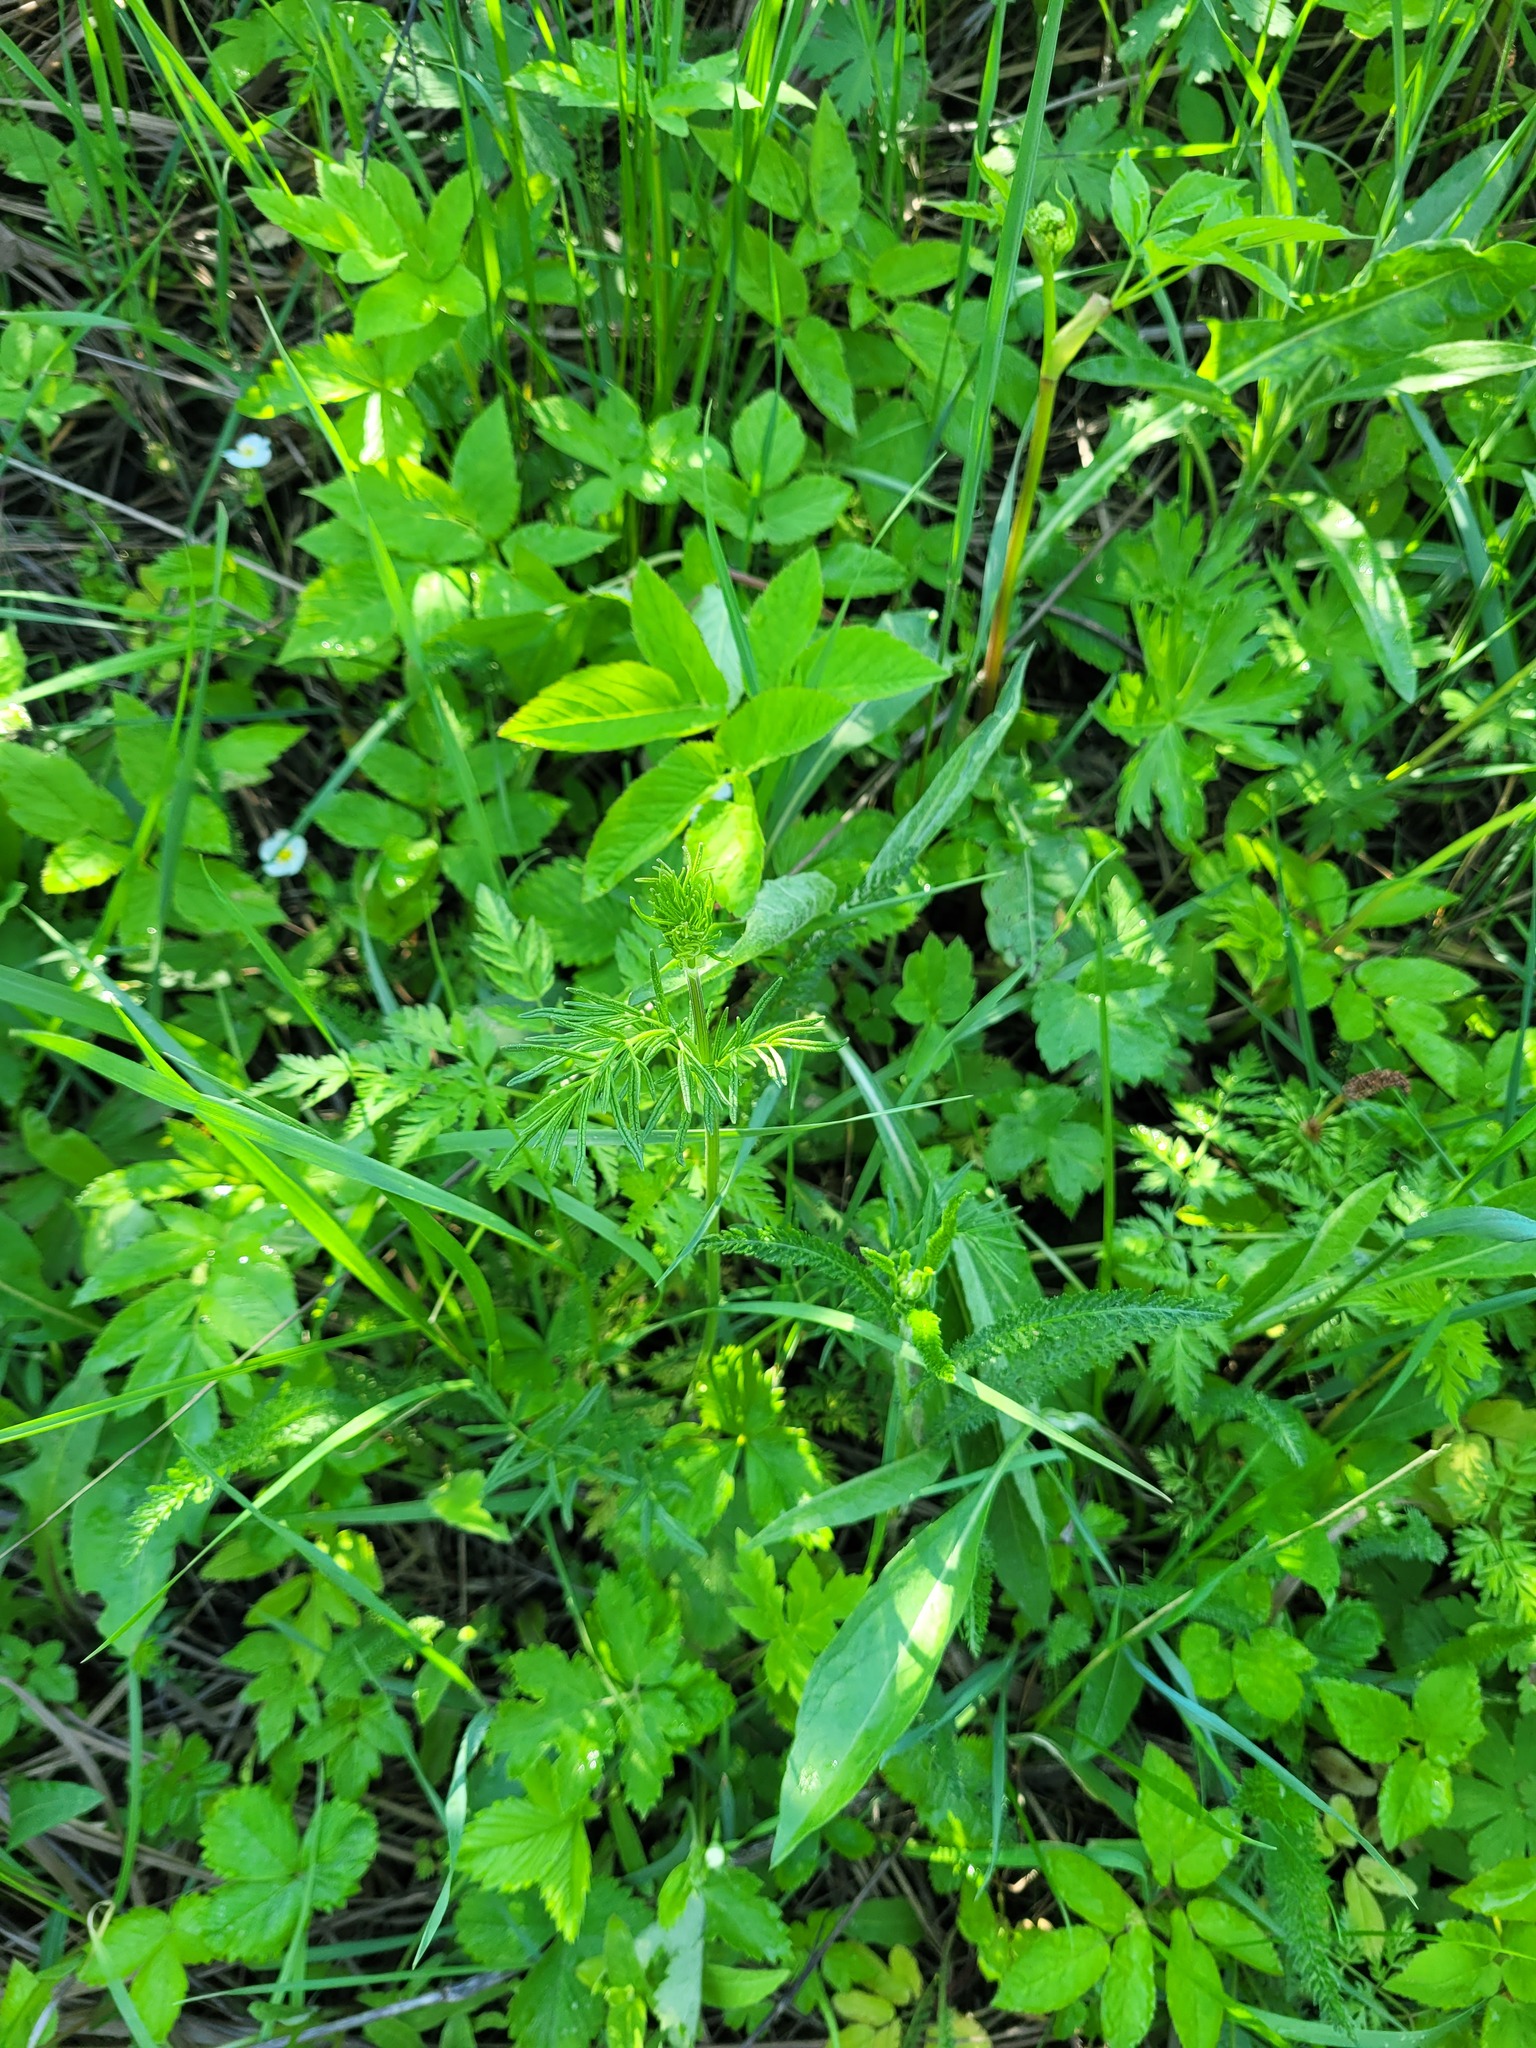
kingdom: Plantae
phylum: Tracheophyta
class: Magnoliopsida
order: Ranunculales
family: Ranunculaceae
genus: Thalictrum
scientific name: Thalictrum lucidum
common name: Shining meadow-rue
